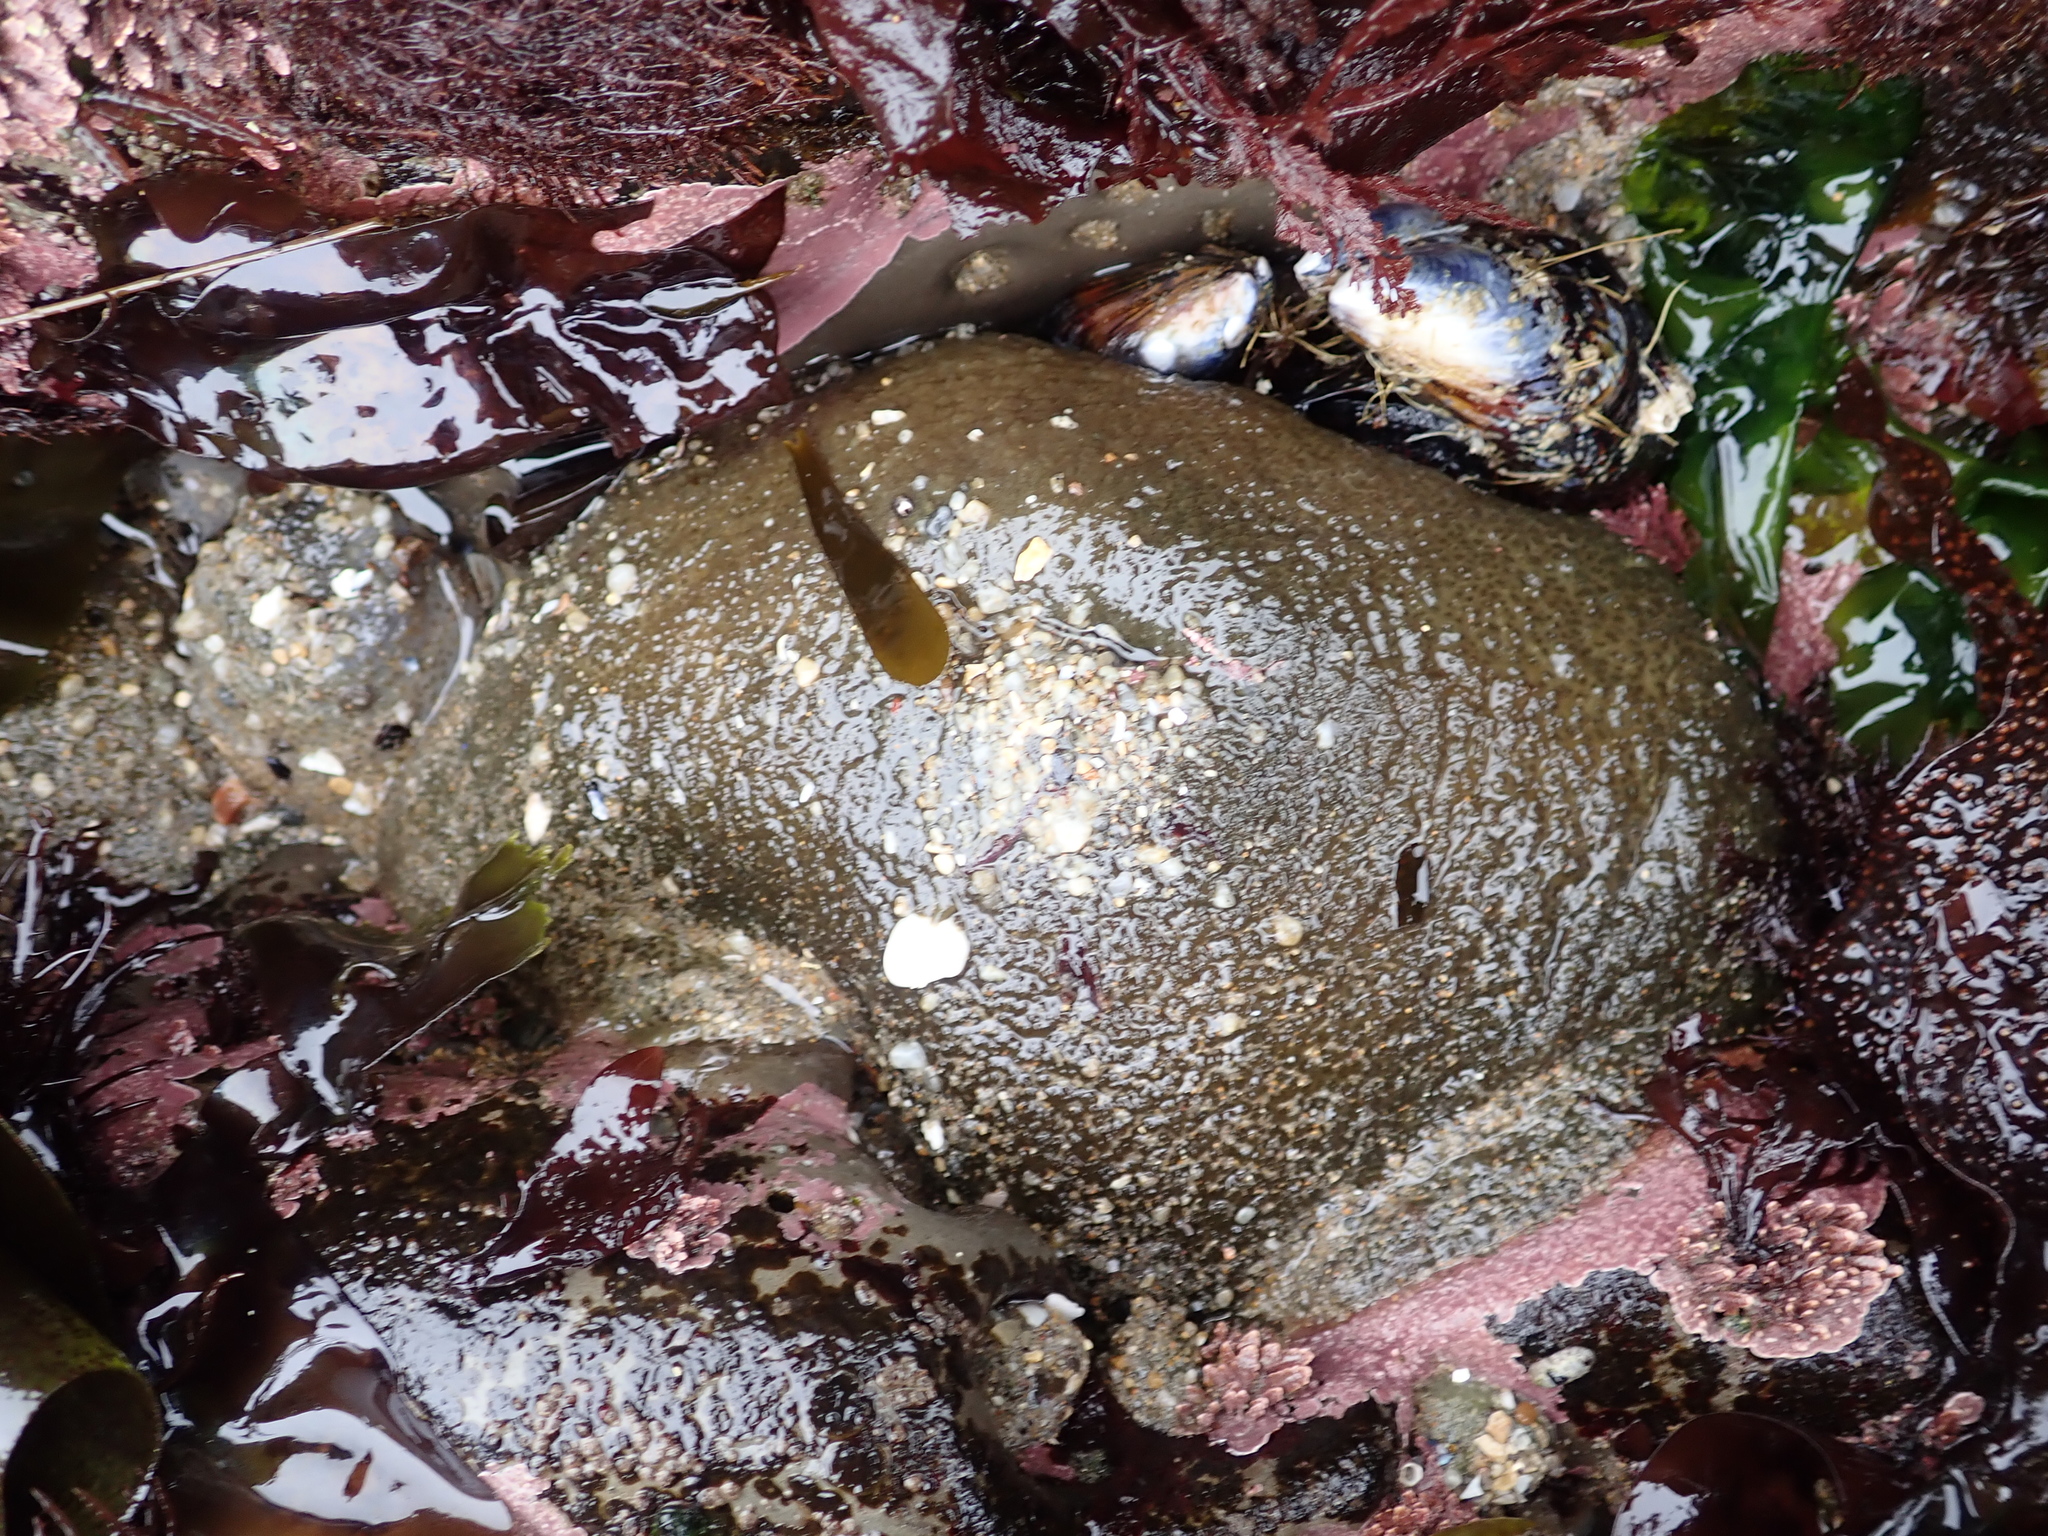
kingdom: Animalia
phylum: Cnidaria
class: Anthozoa
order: Actiniaria
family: Actiniidae
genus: Anthopleura
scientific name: Anthopleura xanthogrammica
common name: Giant green anemone
